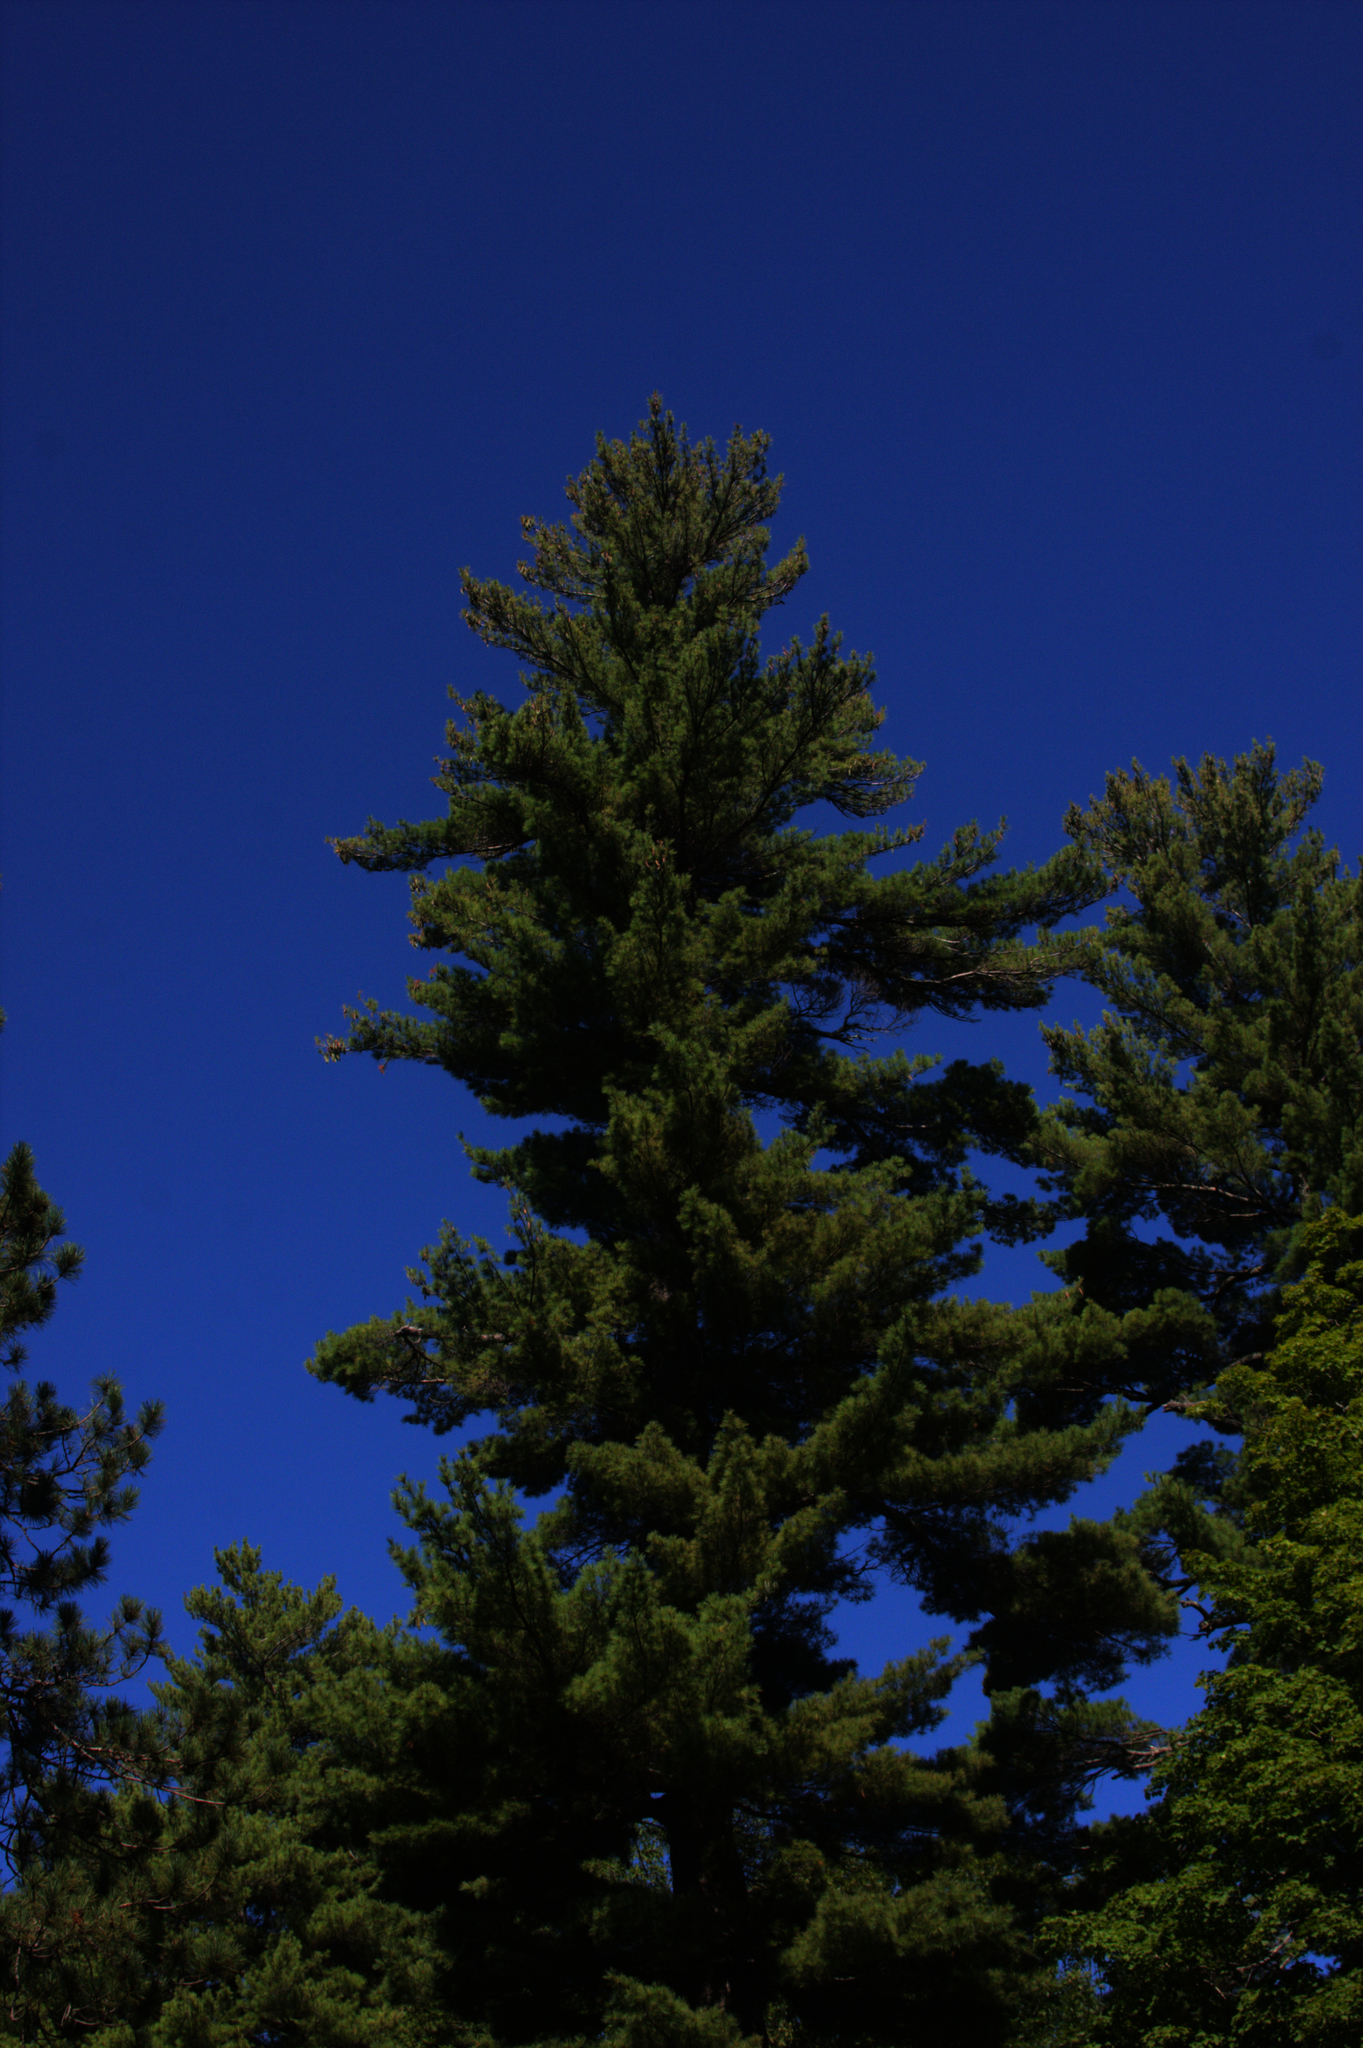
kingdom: Plantae
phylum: Tracheophyta
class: Pinopsida
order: Pinales
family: Pinaceae
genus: Pinus
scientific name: Pinus strobus
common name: Weymouth pine
